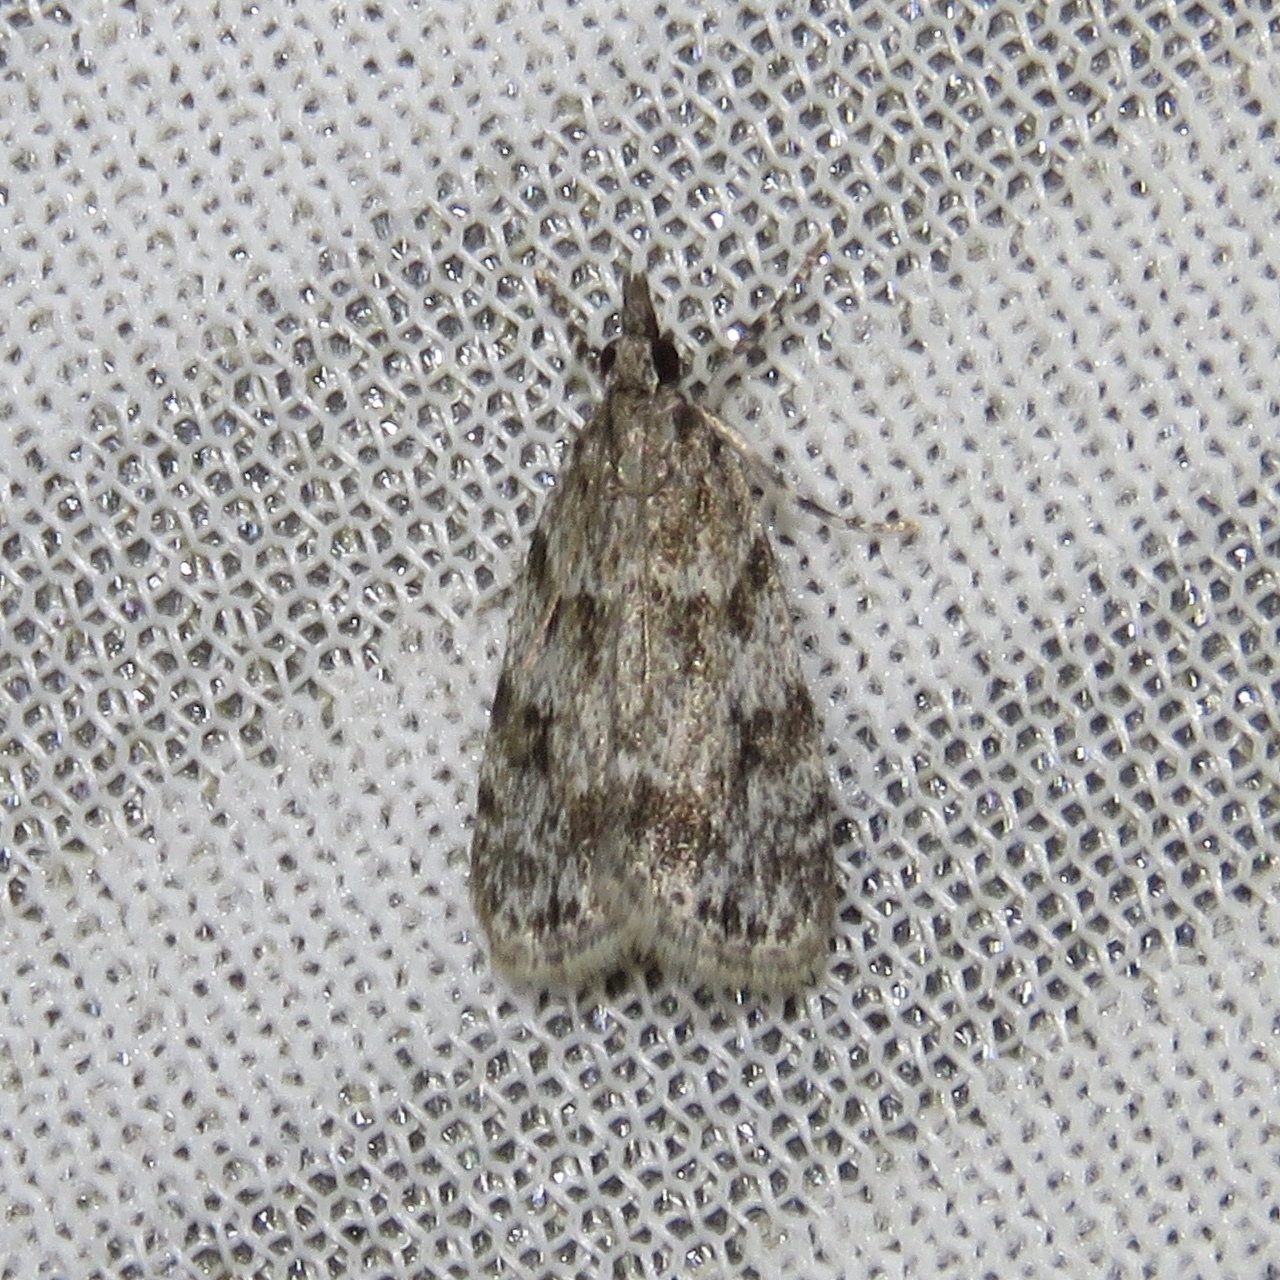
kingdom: Animalia
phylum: Arthropoda
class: Insecta
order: Lepidoptera
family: Crambidae
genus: Scoparia
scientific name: Scoparia basalis
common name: Many-spotted scoparia moth
